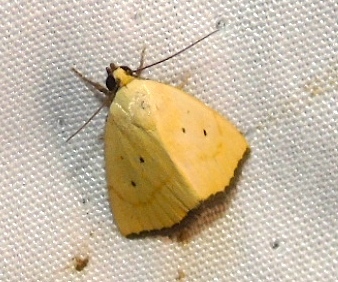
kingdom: Animalia
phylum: Arthropoda
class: Insecta
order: Lepidoptera
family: Noctuidae
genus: Marimatha
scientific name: Marimatha tripuncta
